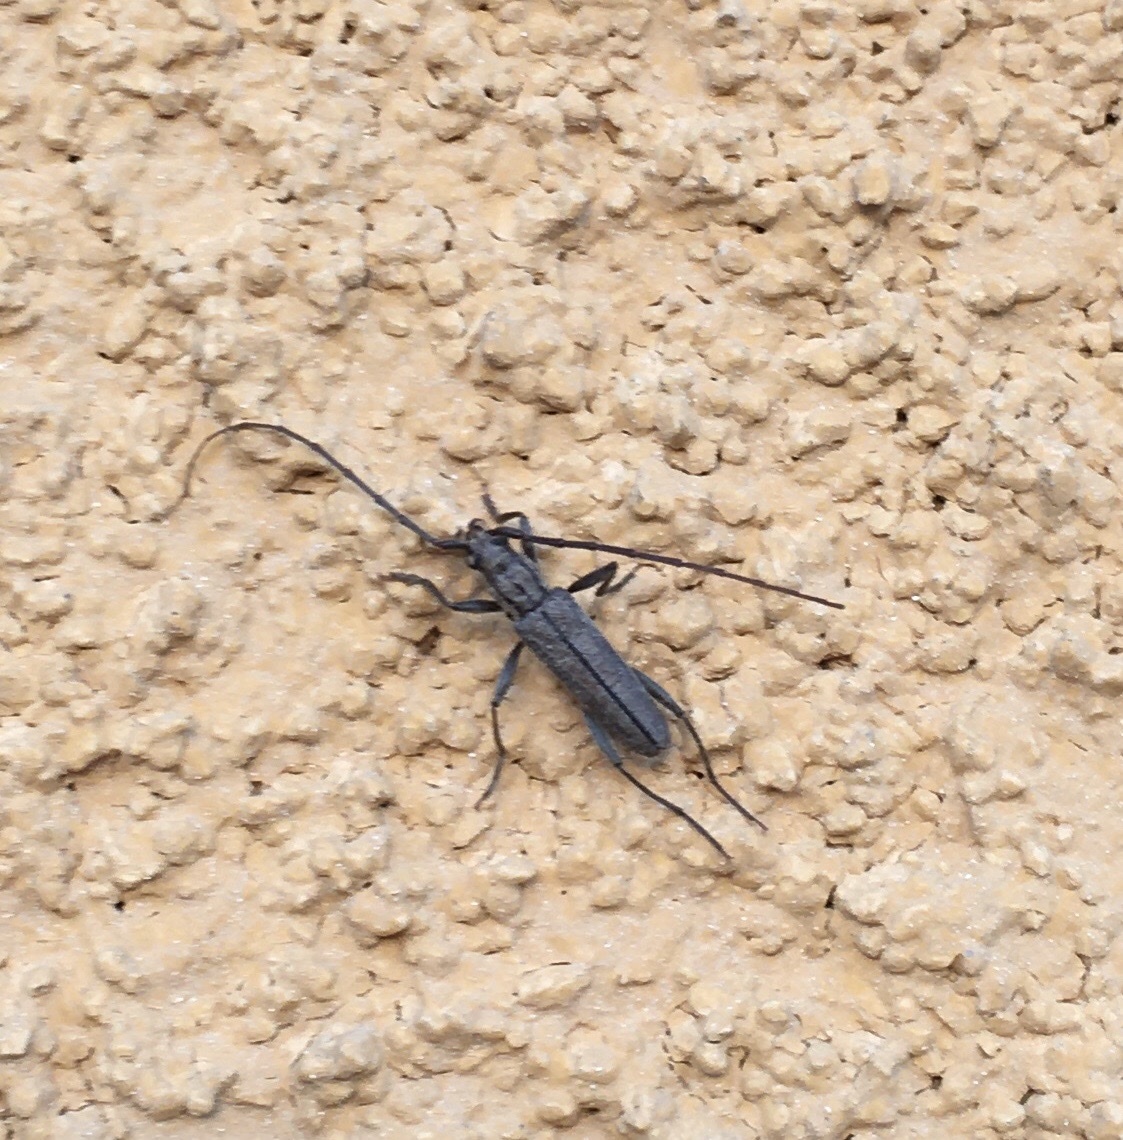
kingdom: Animalia
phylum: Arthropoda
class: Insecta
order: Coleoptera
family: Cerambycidae
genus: Icosium
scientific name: Icosium tomentosum
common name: Longhorn beetle
